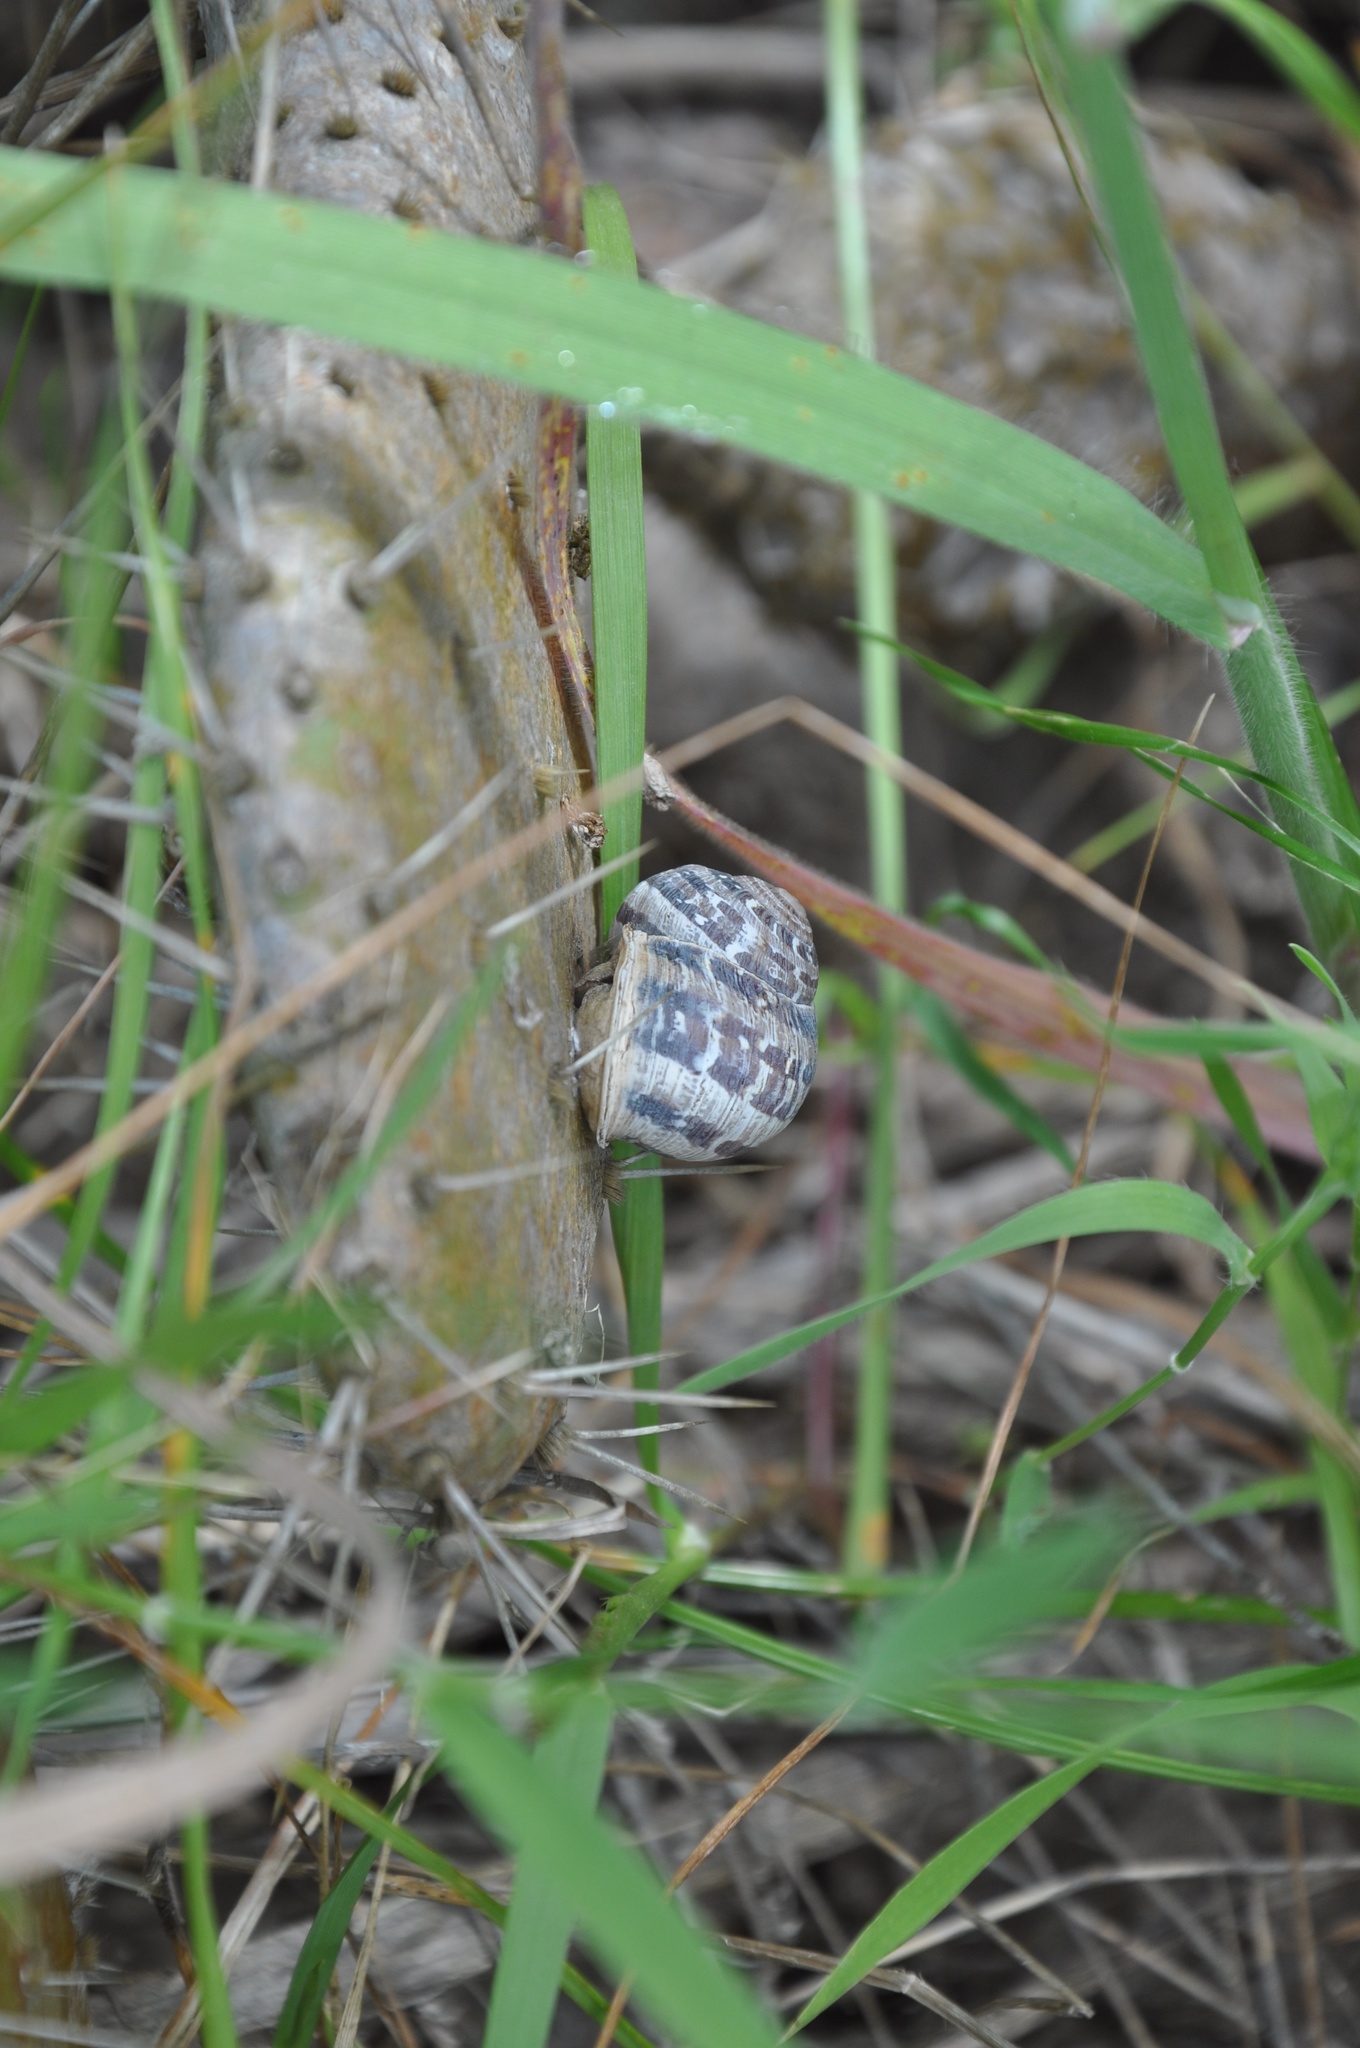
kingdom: Animalia
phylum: Mollusca
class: Gastropoda
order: Stylommatophora
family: Helicidae
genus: Cornu
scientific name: Cornu aspersum
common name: Brown garden snail
